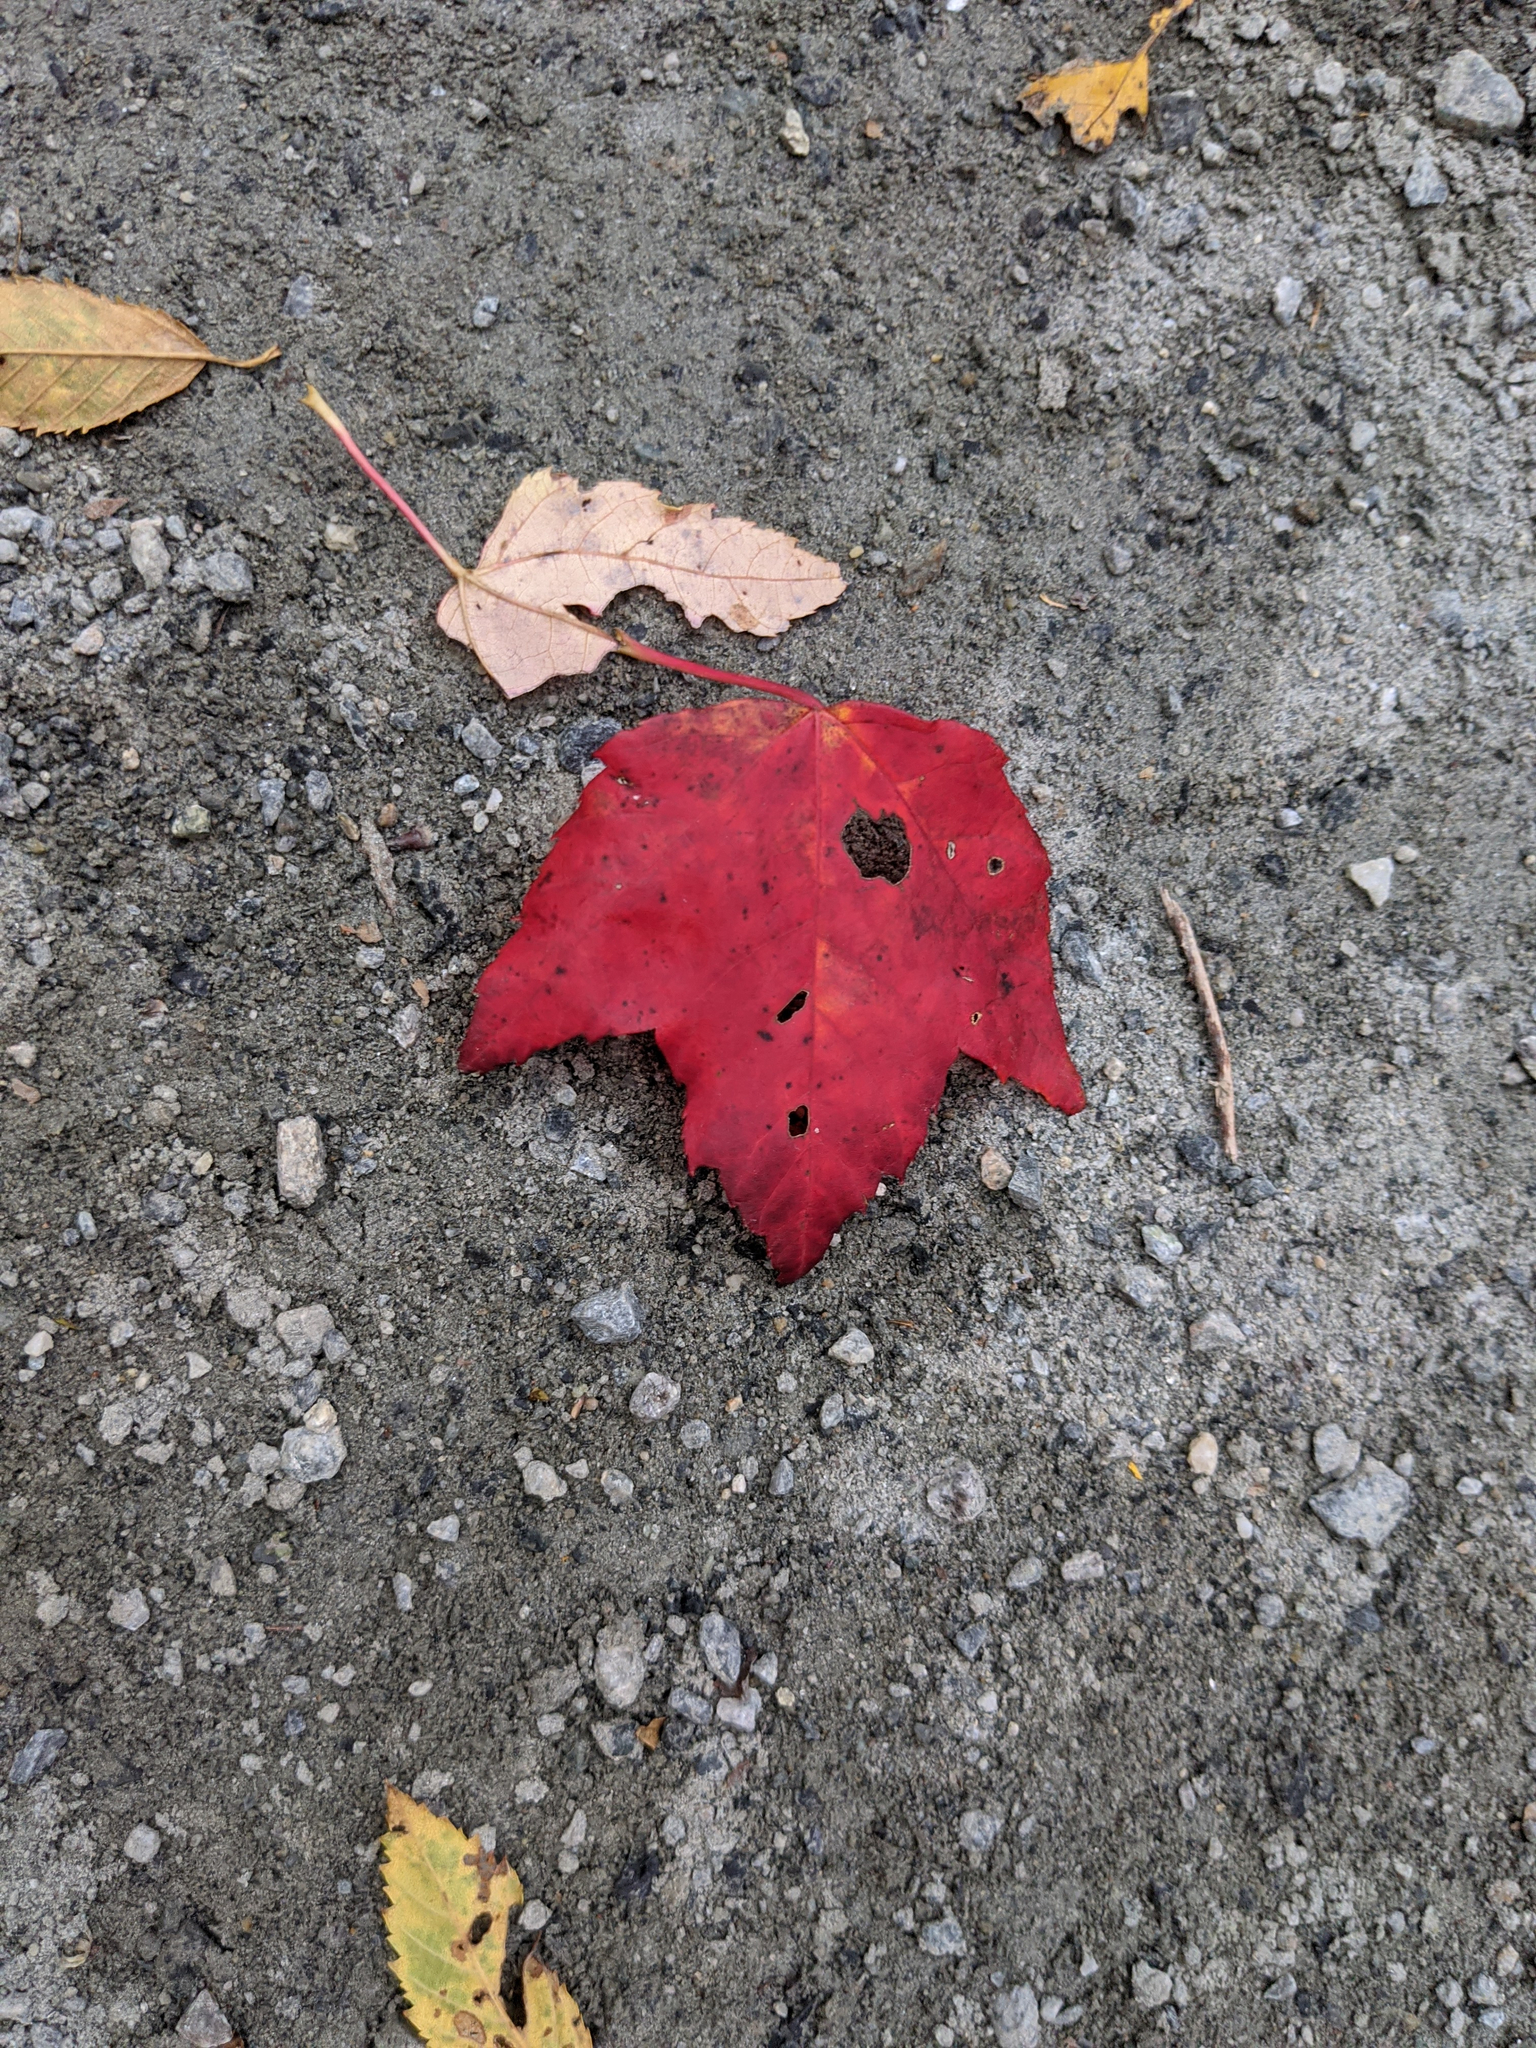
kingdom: Plantae
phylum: Tracheophyta
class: Magnoliopsida
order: Sapindales
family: Sapindaceae
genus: Acer
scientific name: Acer rubrum
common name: Red maple
